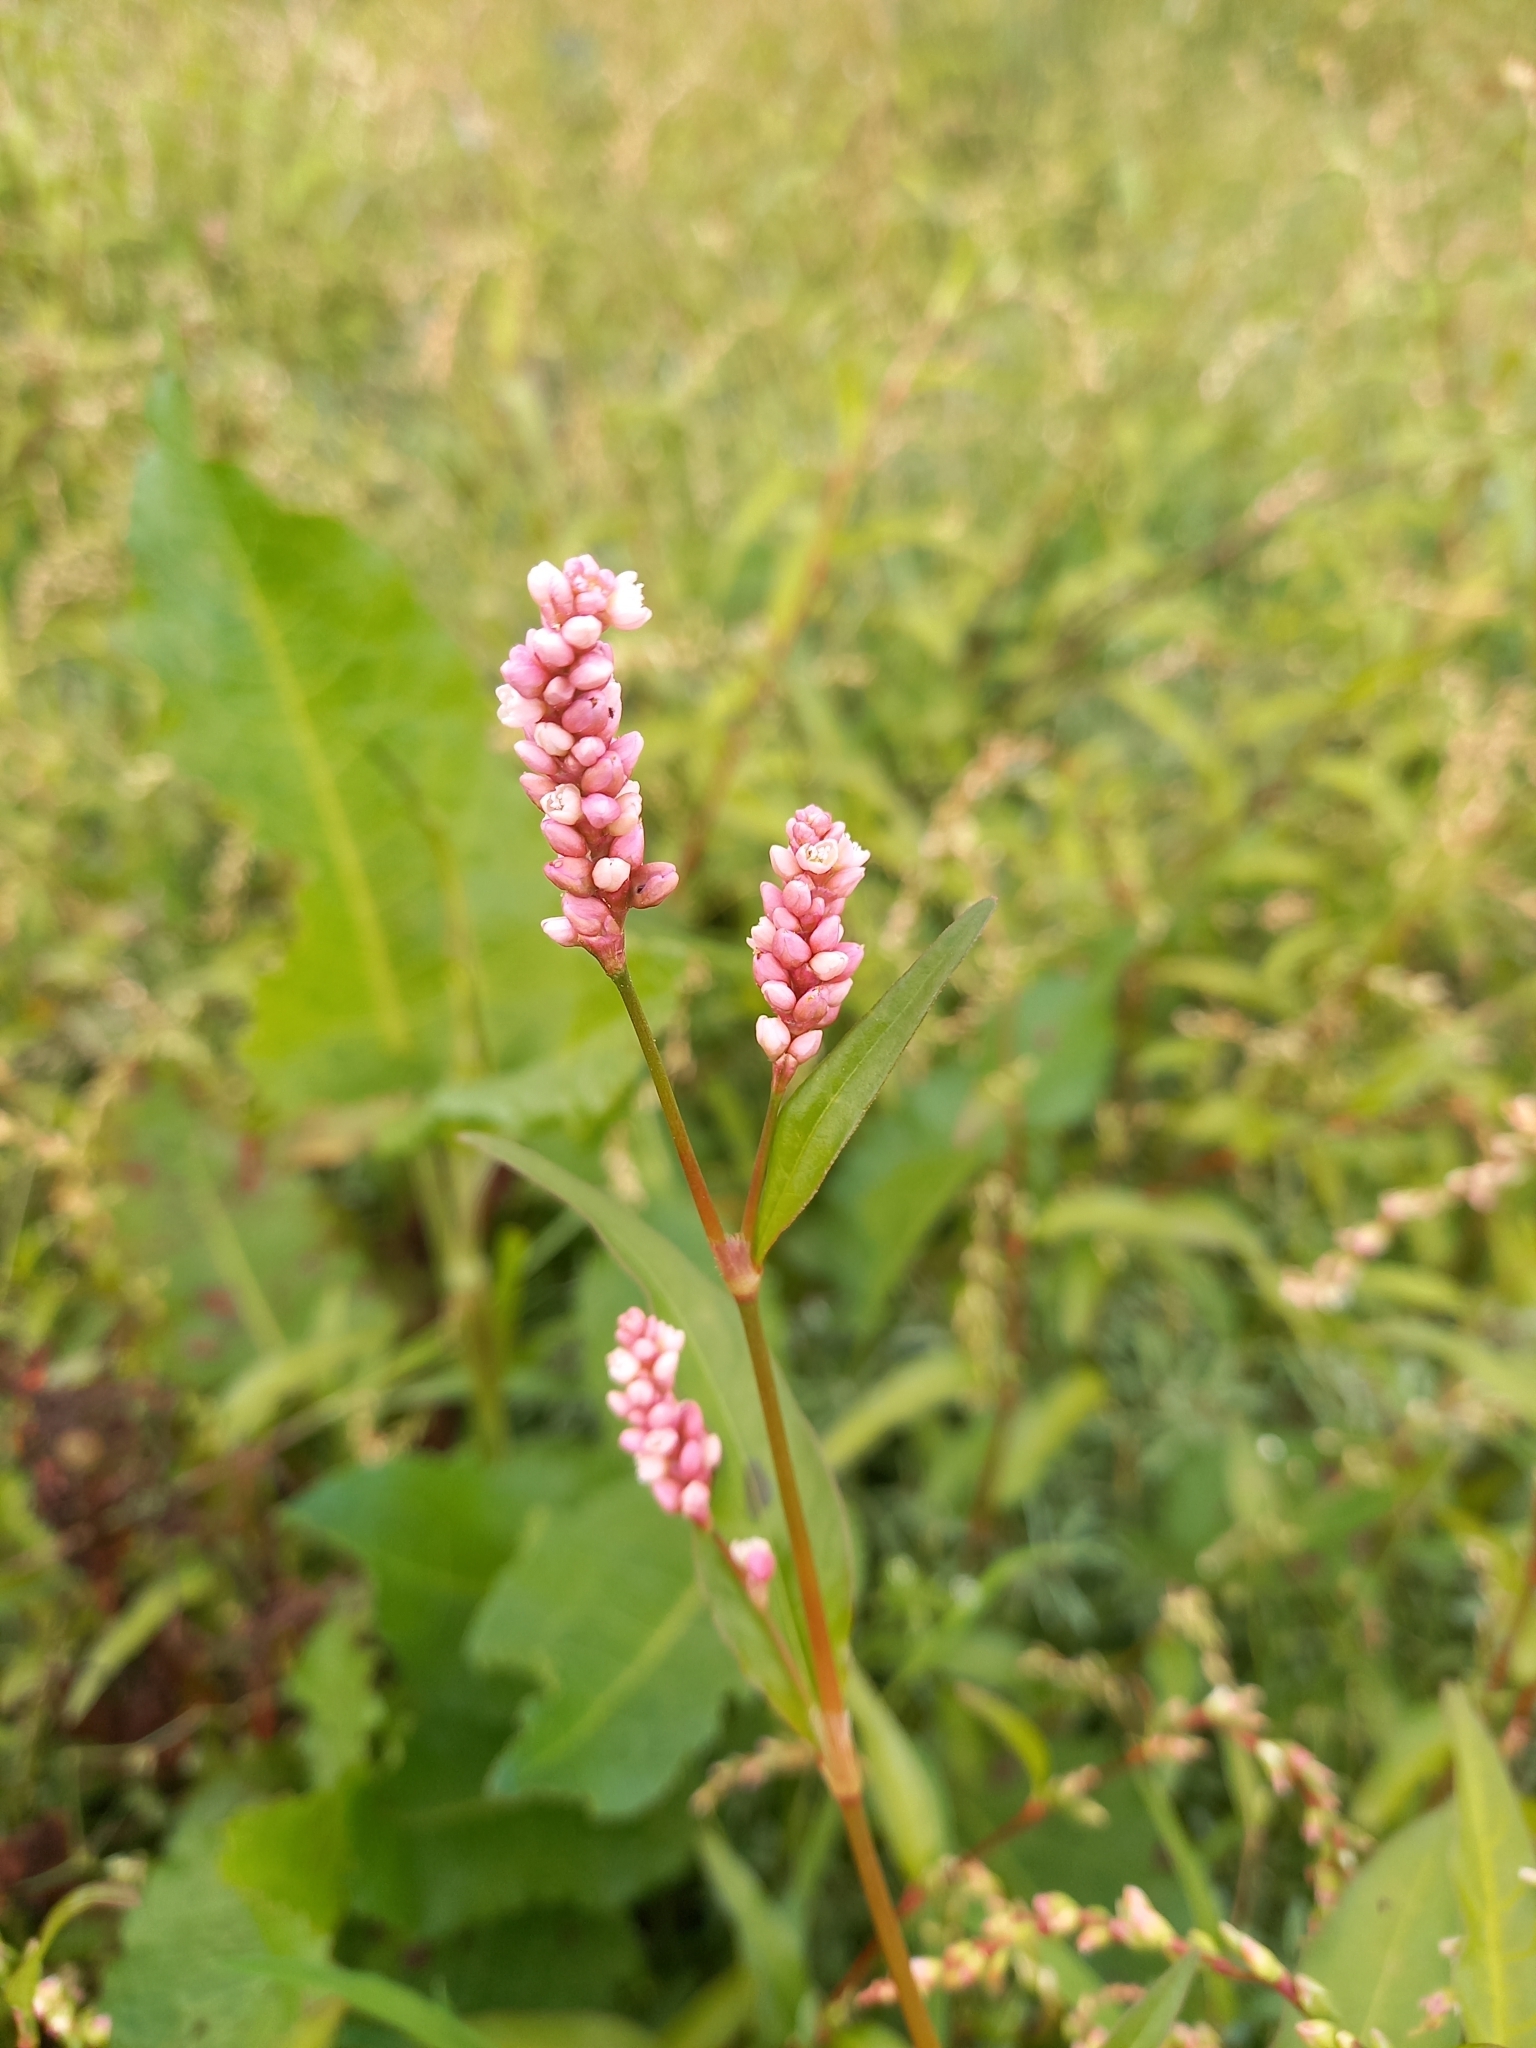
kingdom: Plantae
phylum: Tracheophyta
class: Magnoliopsida
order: Caryophyllales
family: Polygonaceae
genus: Persicaria
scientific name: Persicaria maculosa
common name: Redshank
